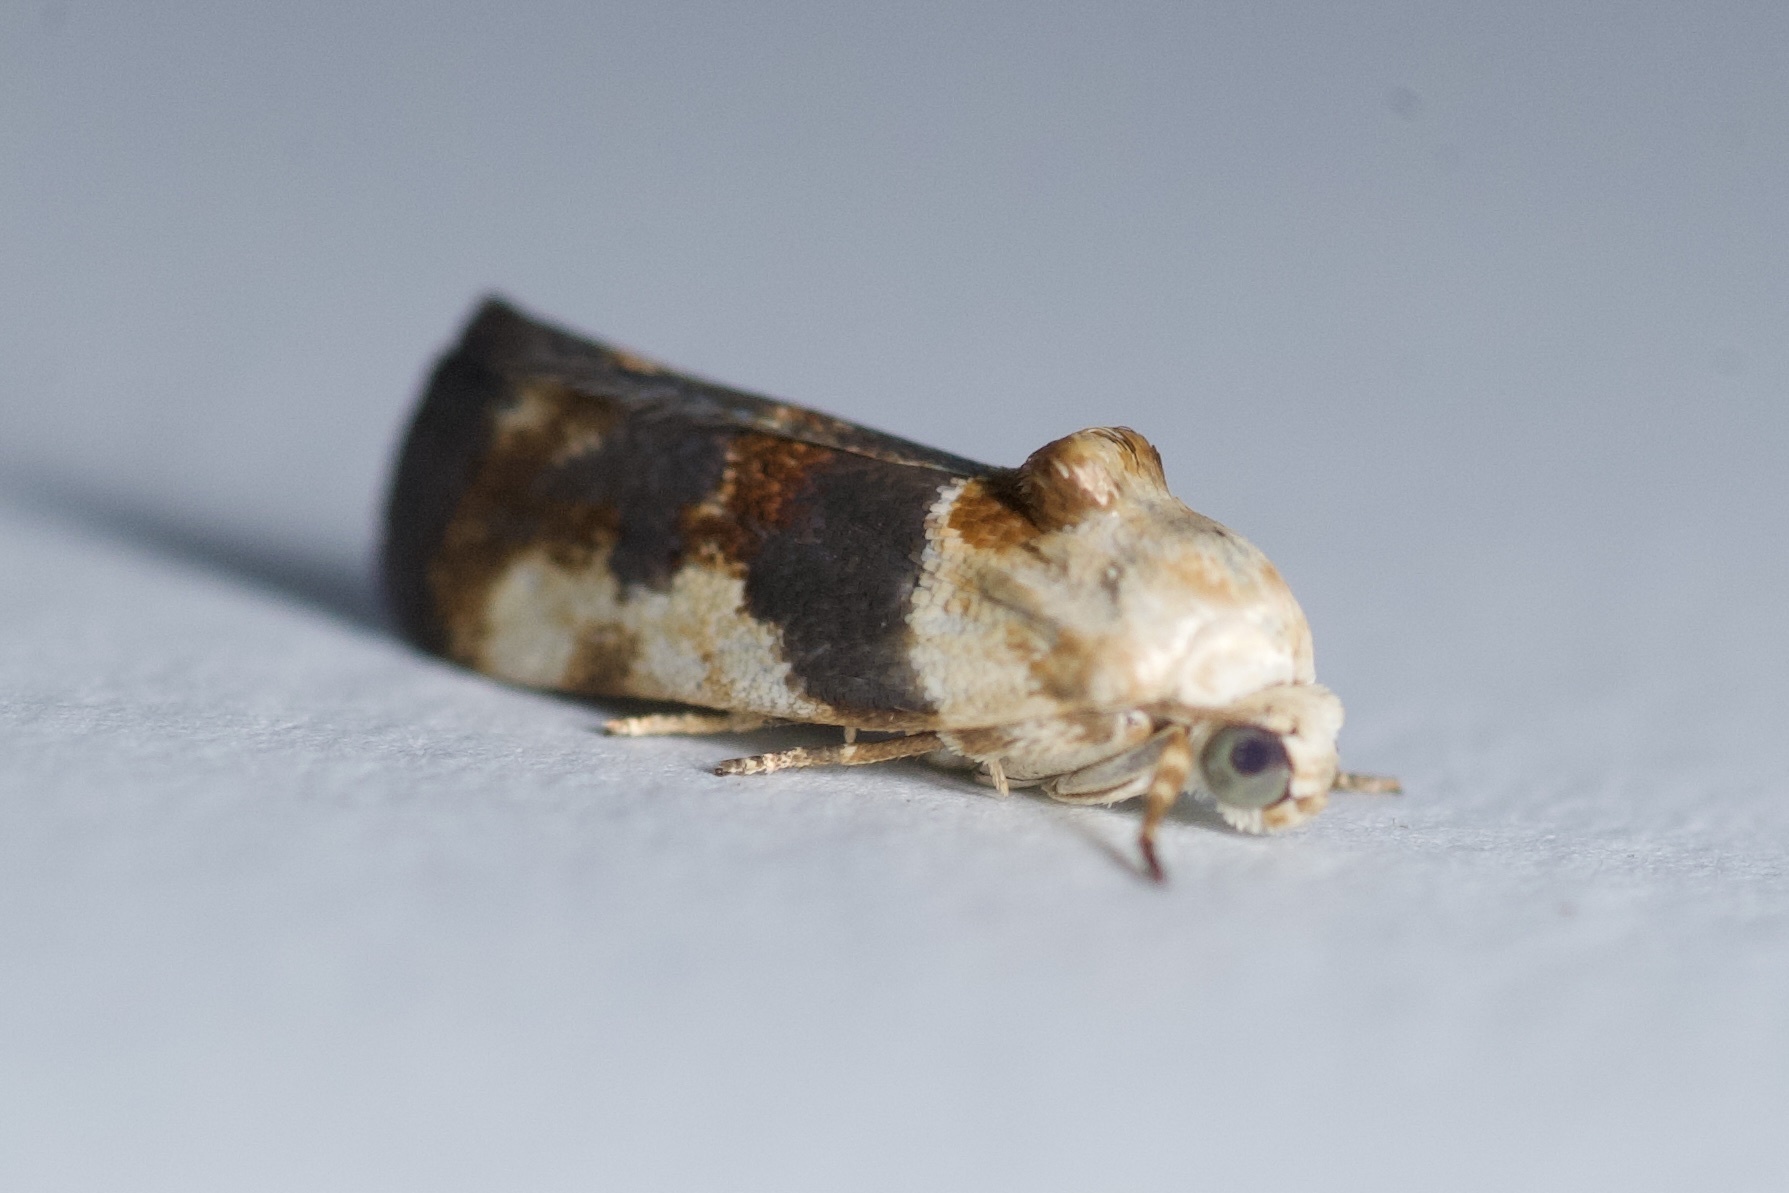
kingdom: Animalia
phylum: Arthropoda
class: Insecta
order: Lepidoptera
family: Noctuidae
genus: Acontia
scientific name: Acontia obatra
